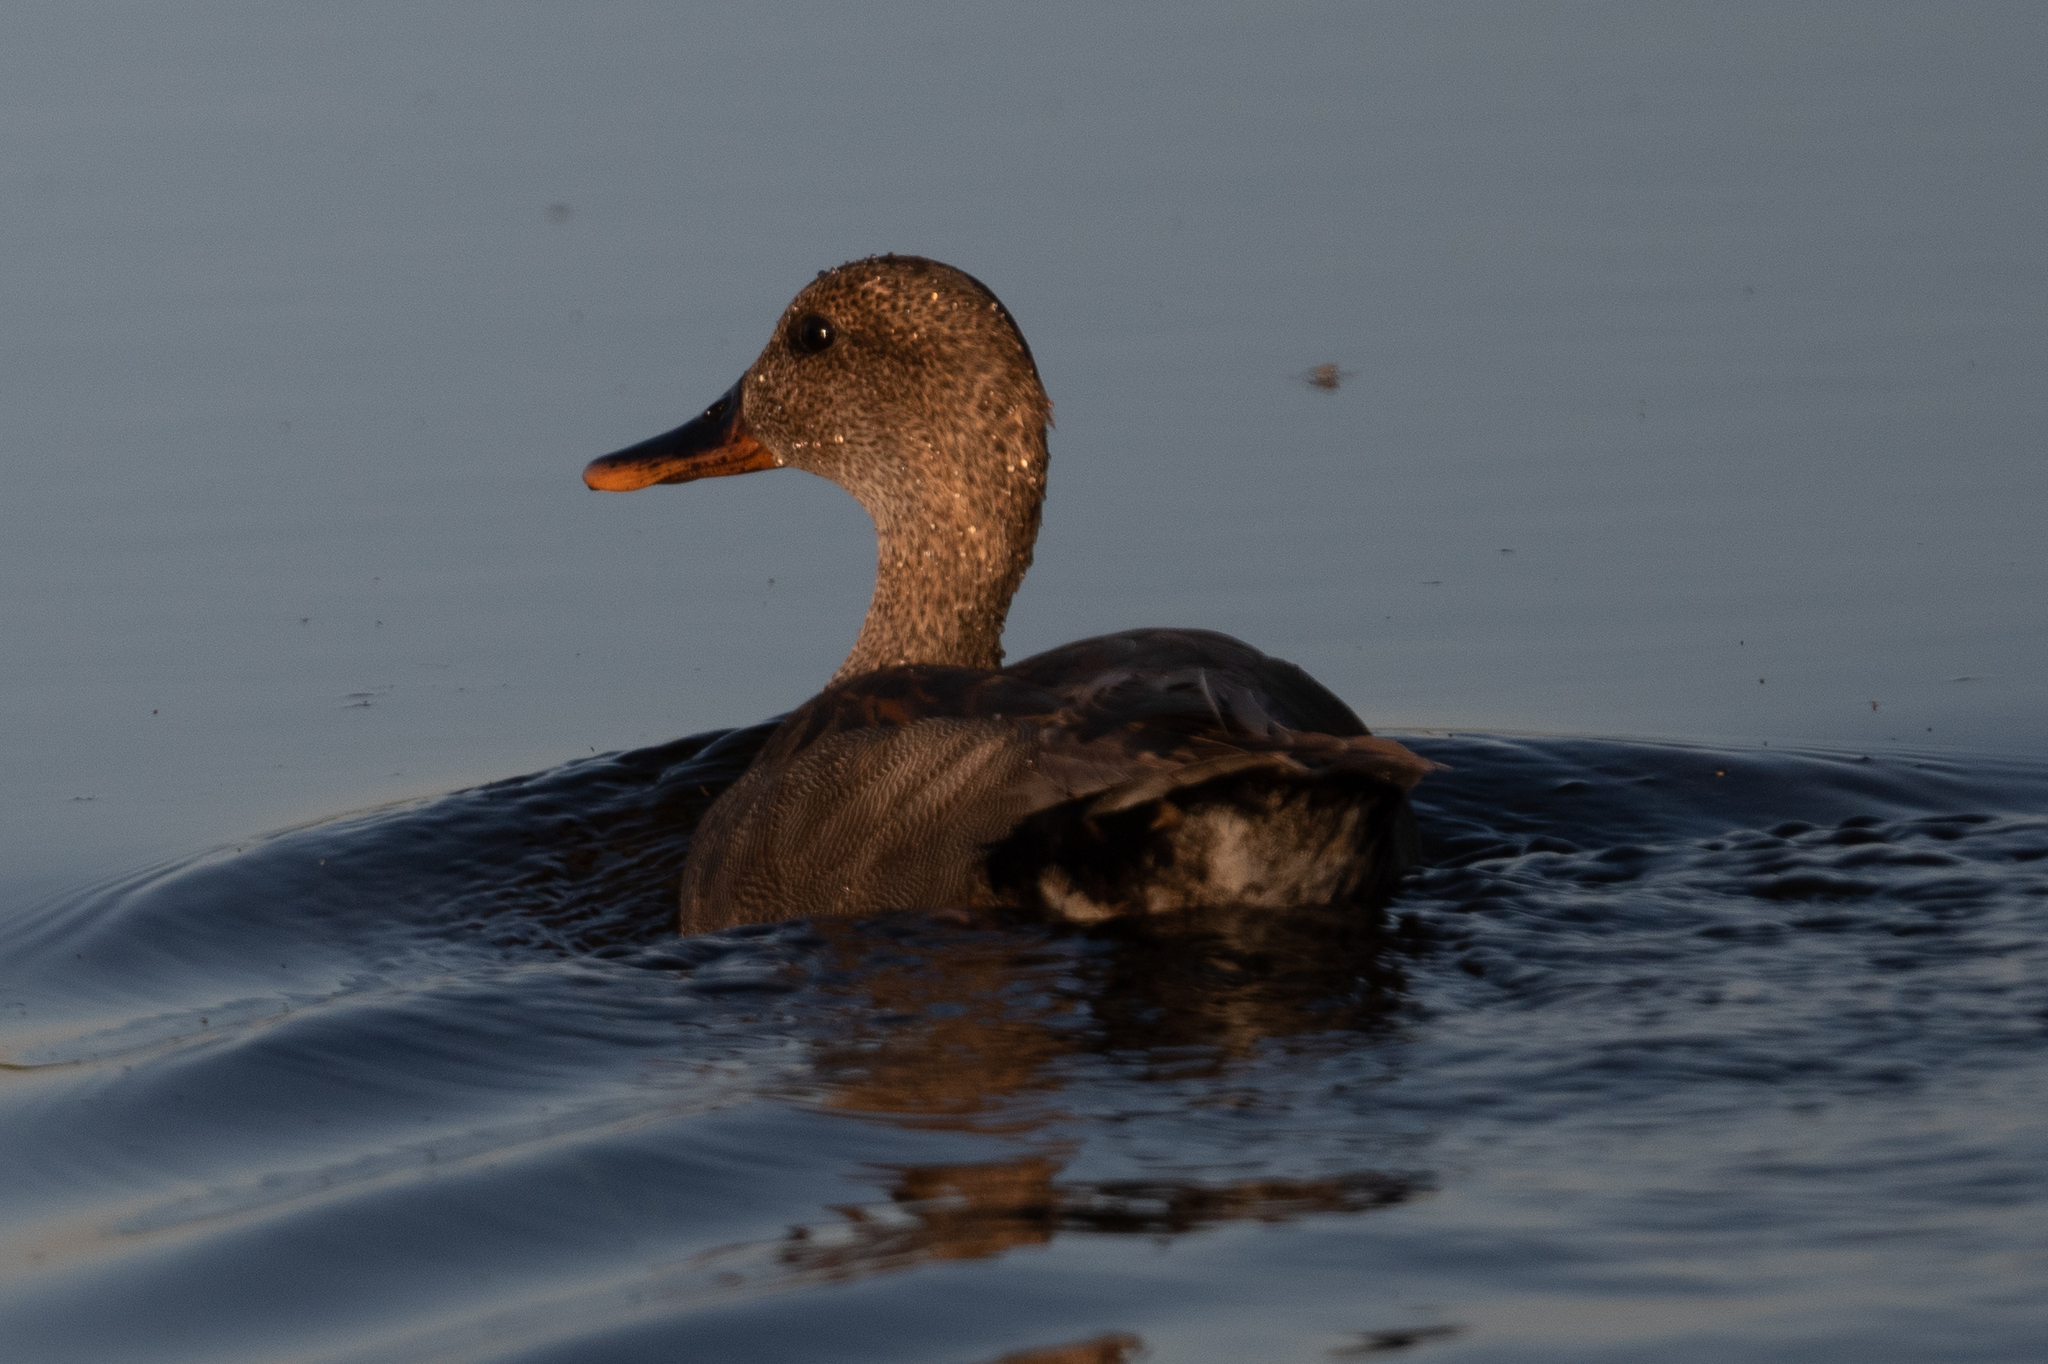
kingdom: Animalia
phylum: Chordata
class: Aves
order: Anseriformes
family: Anatidae
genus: Mareca
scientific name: Mareca strepera
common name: Gadwall
